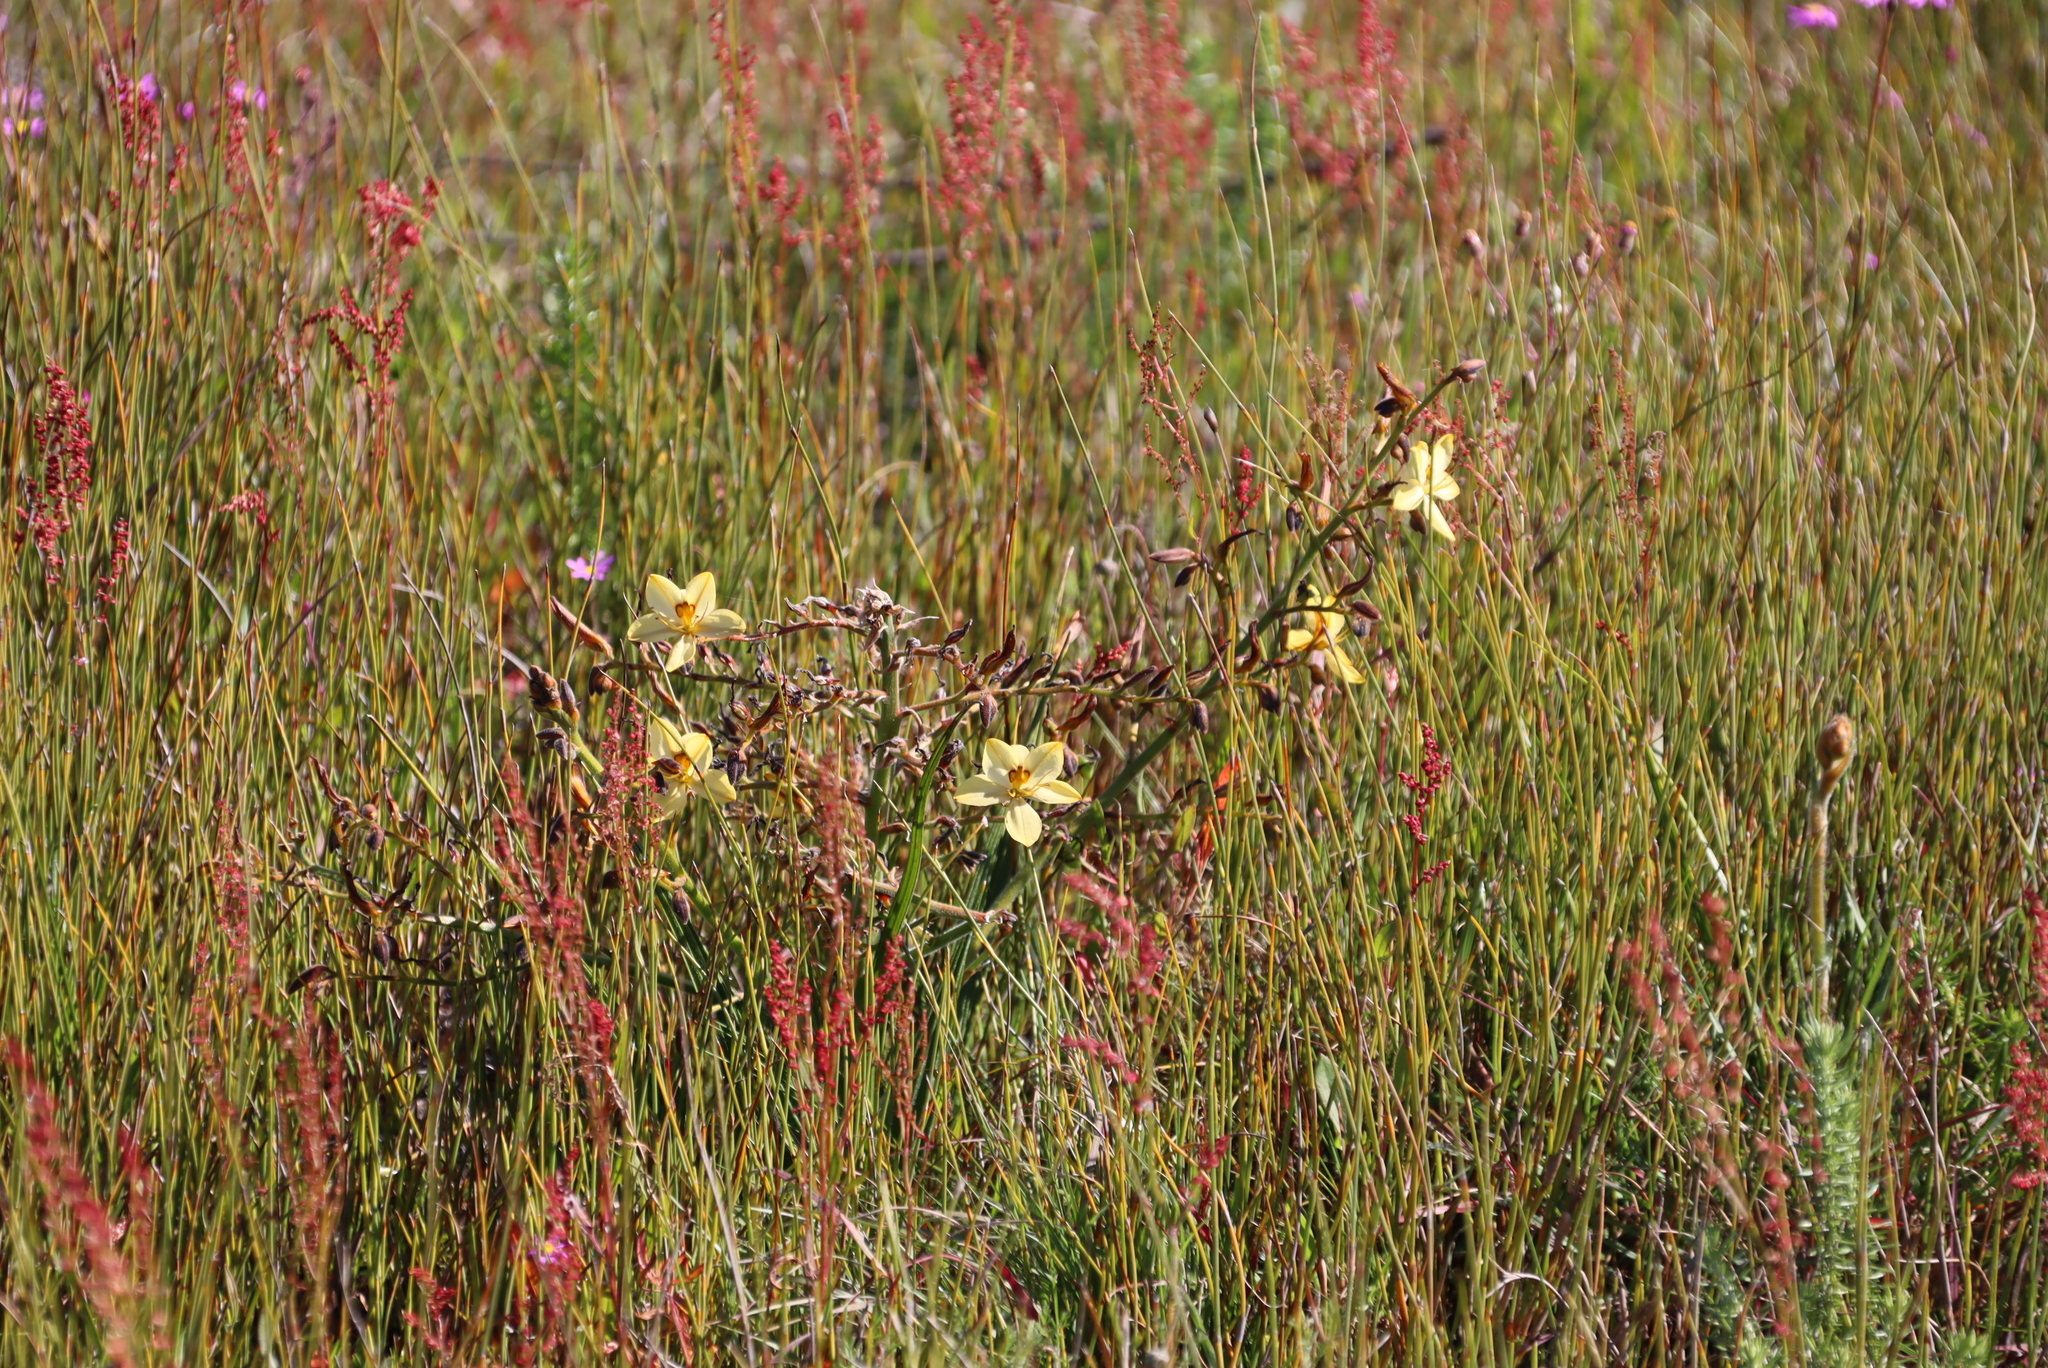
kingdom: Plantae
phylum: Tracheophyta
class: Liliopsida
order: Commelinales
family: Haemodoraceae
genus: Wachendorfia
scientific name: Wachendorfia paniculata
